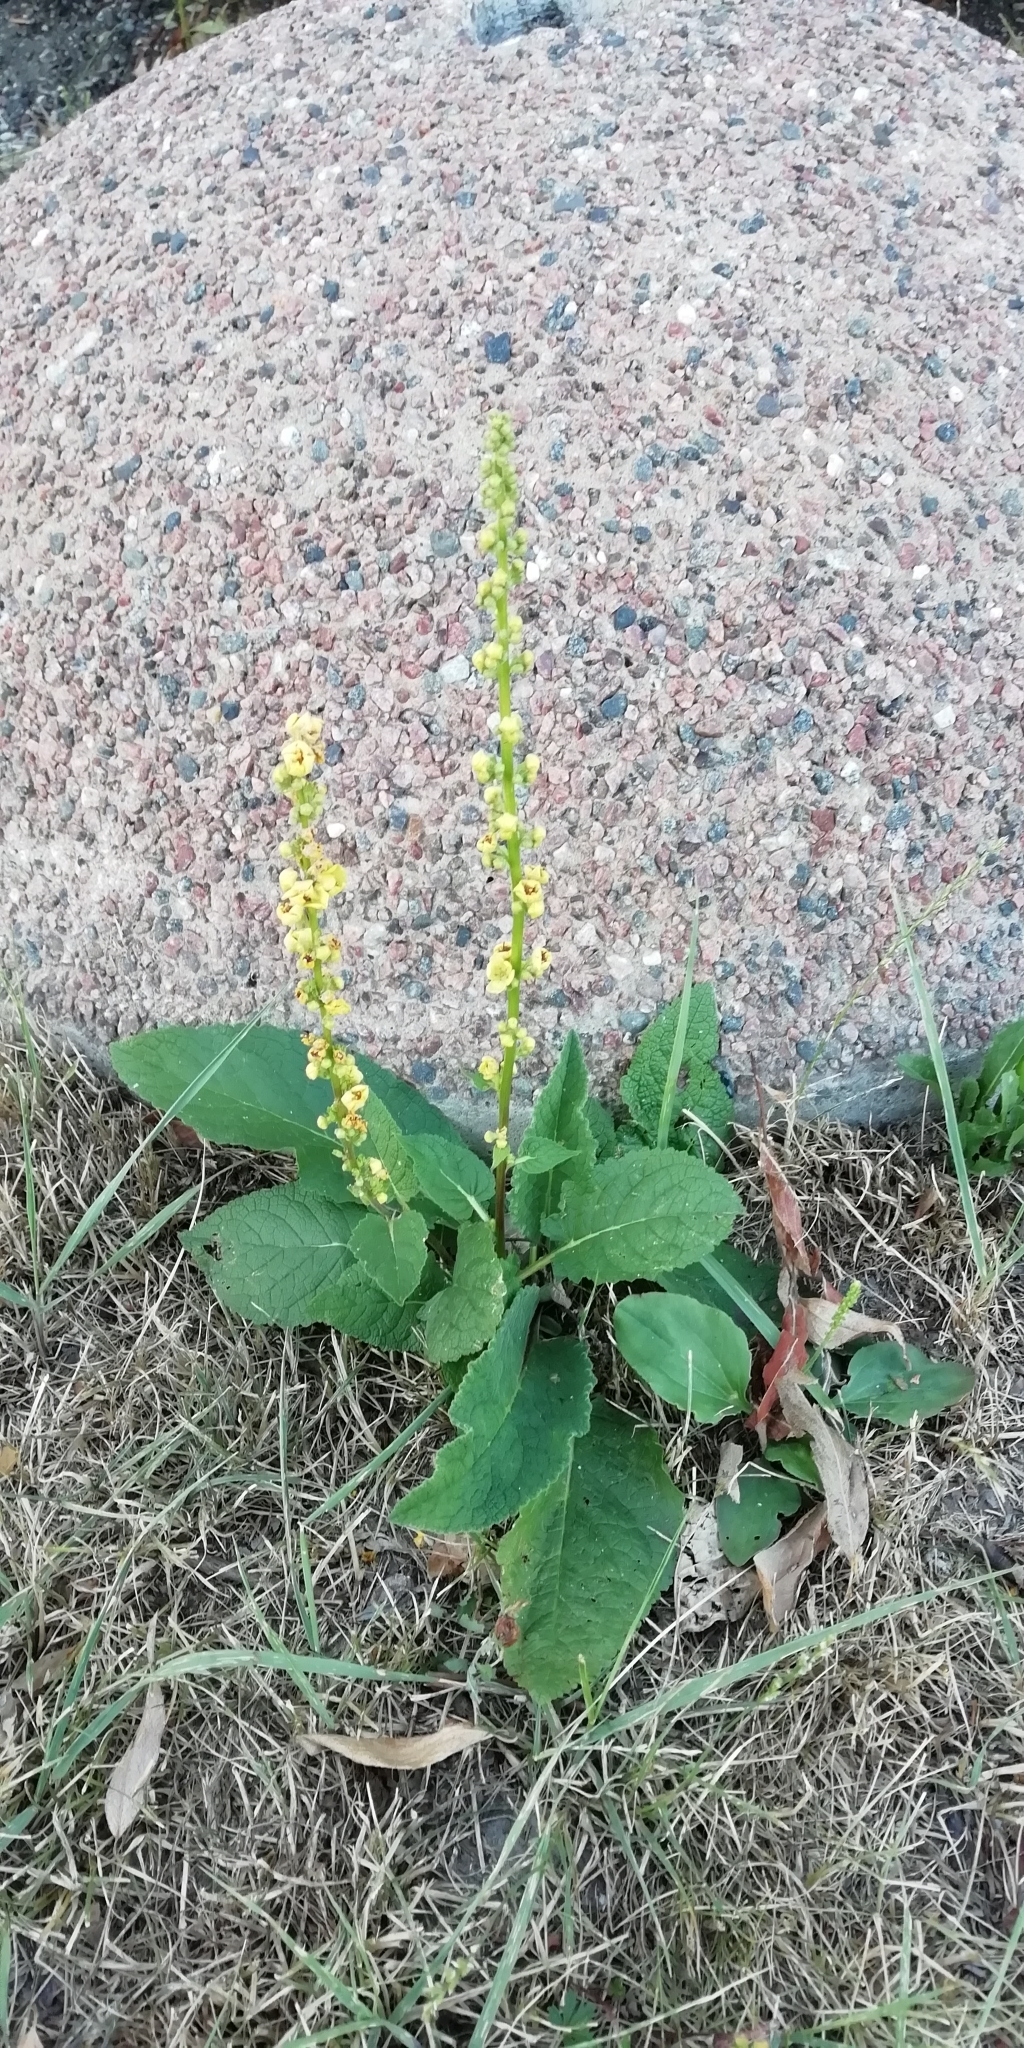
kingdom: Plantae
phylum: Tracheophyta
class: Magnoliopsida
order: Lamiales
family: Scrophulariaceae
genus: Verbascum
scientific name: Verbascum nigrum
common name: Dark mullein
